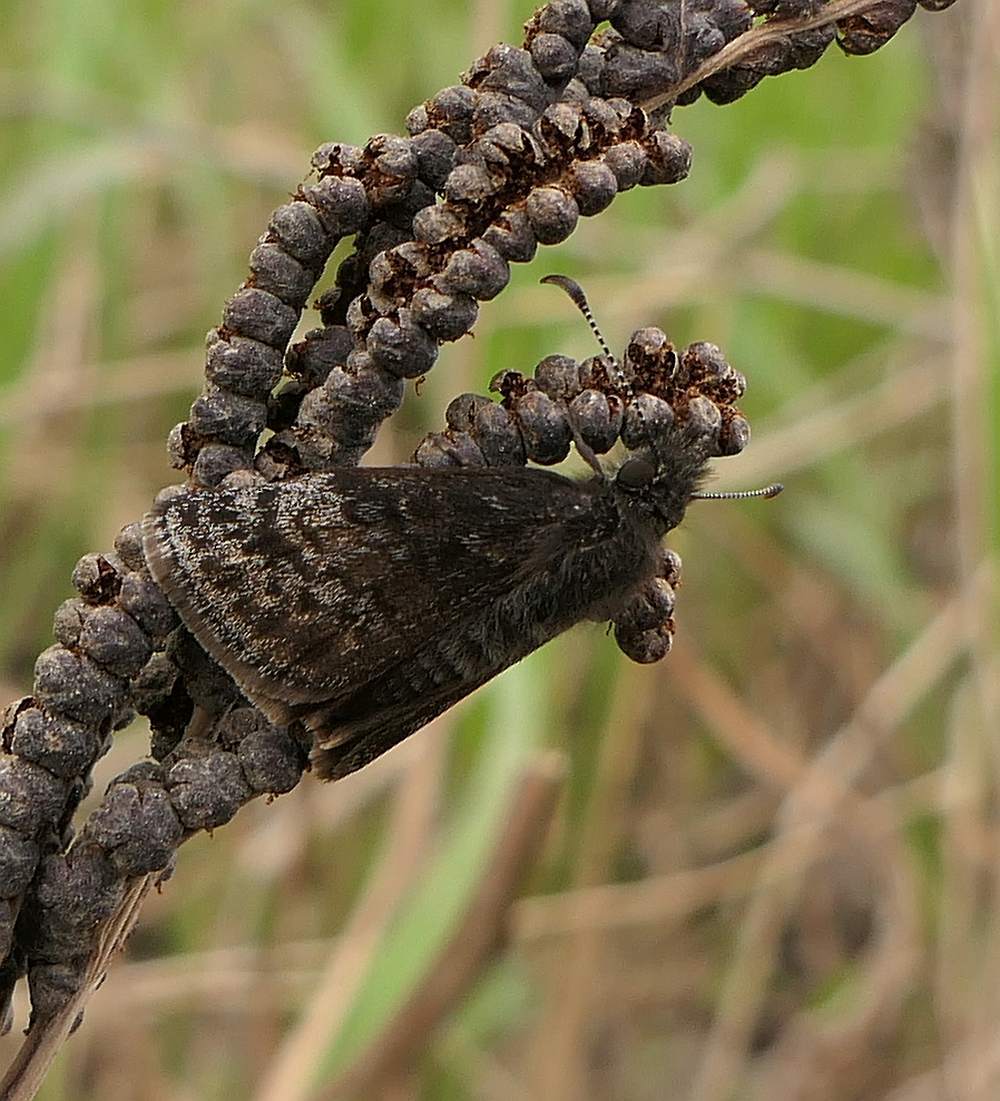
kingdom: Animalia
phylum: Arthropoda
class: Insecta
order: Lepidoptera
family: Hesperiidae
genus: Erynnis
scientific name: Erynnis icelus
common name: Dreamy duskywing
